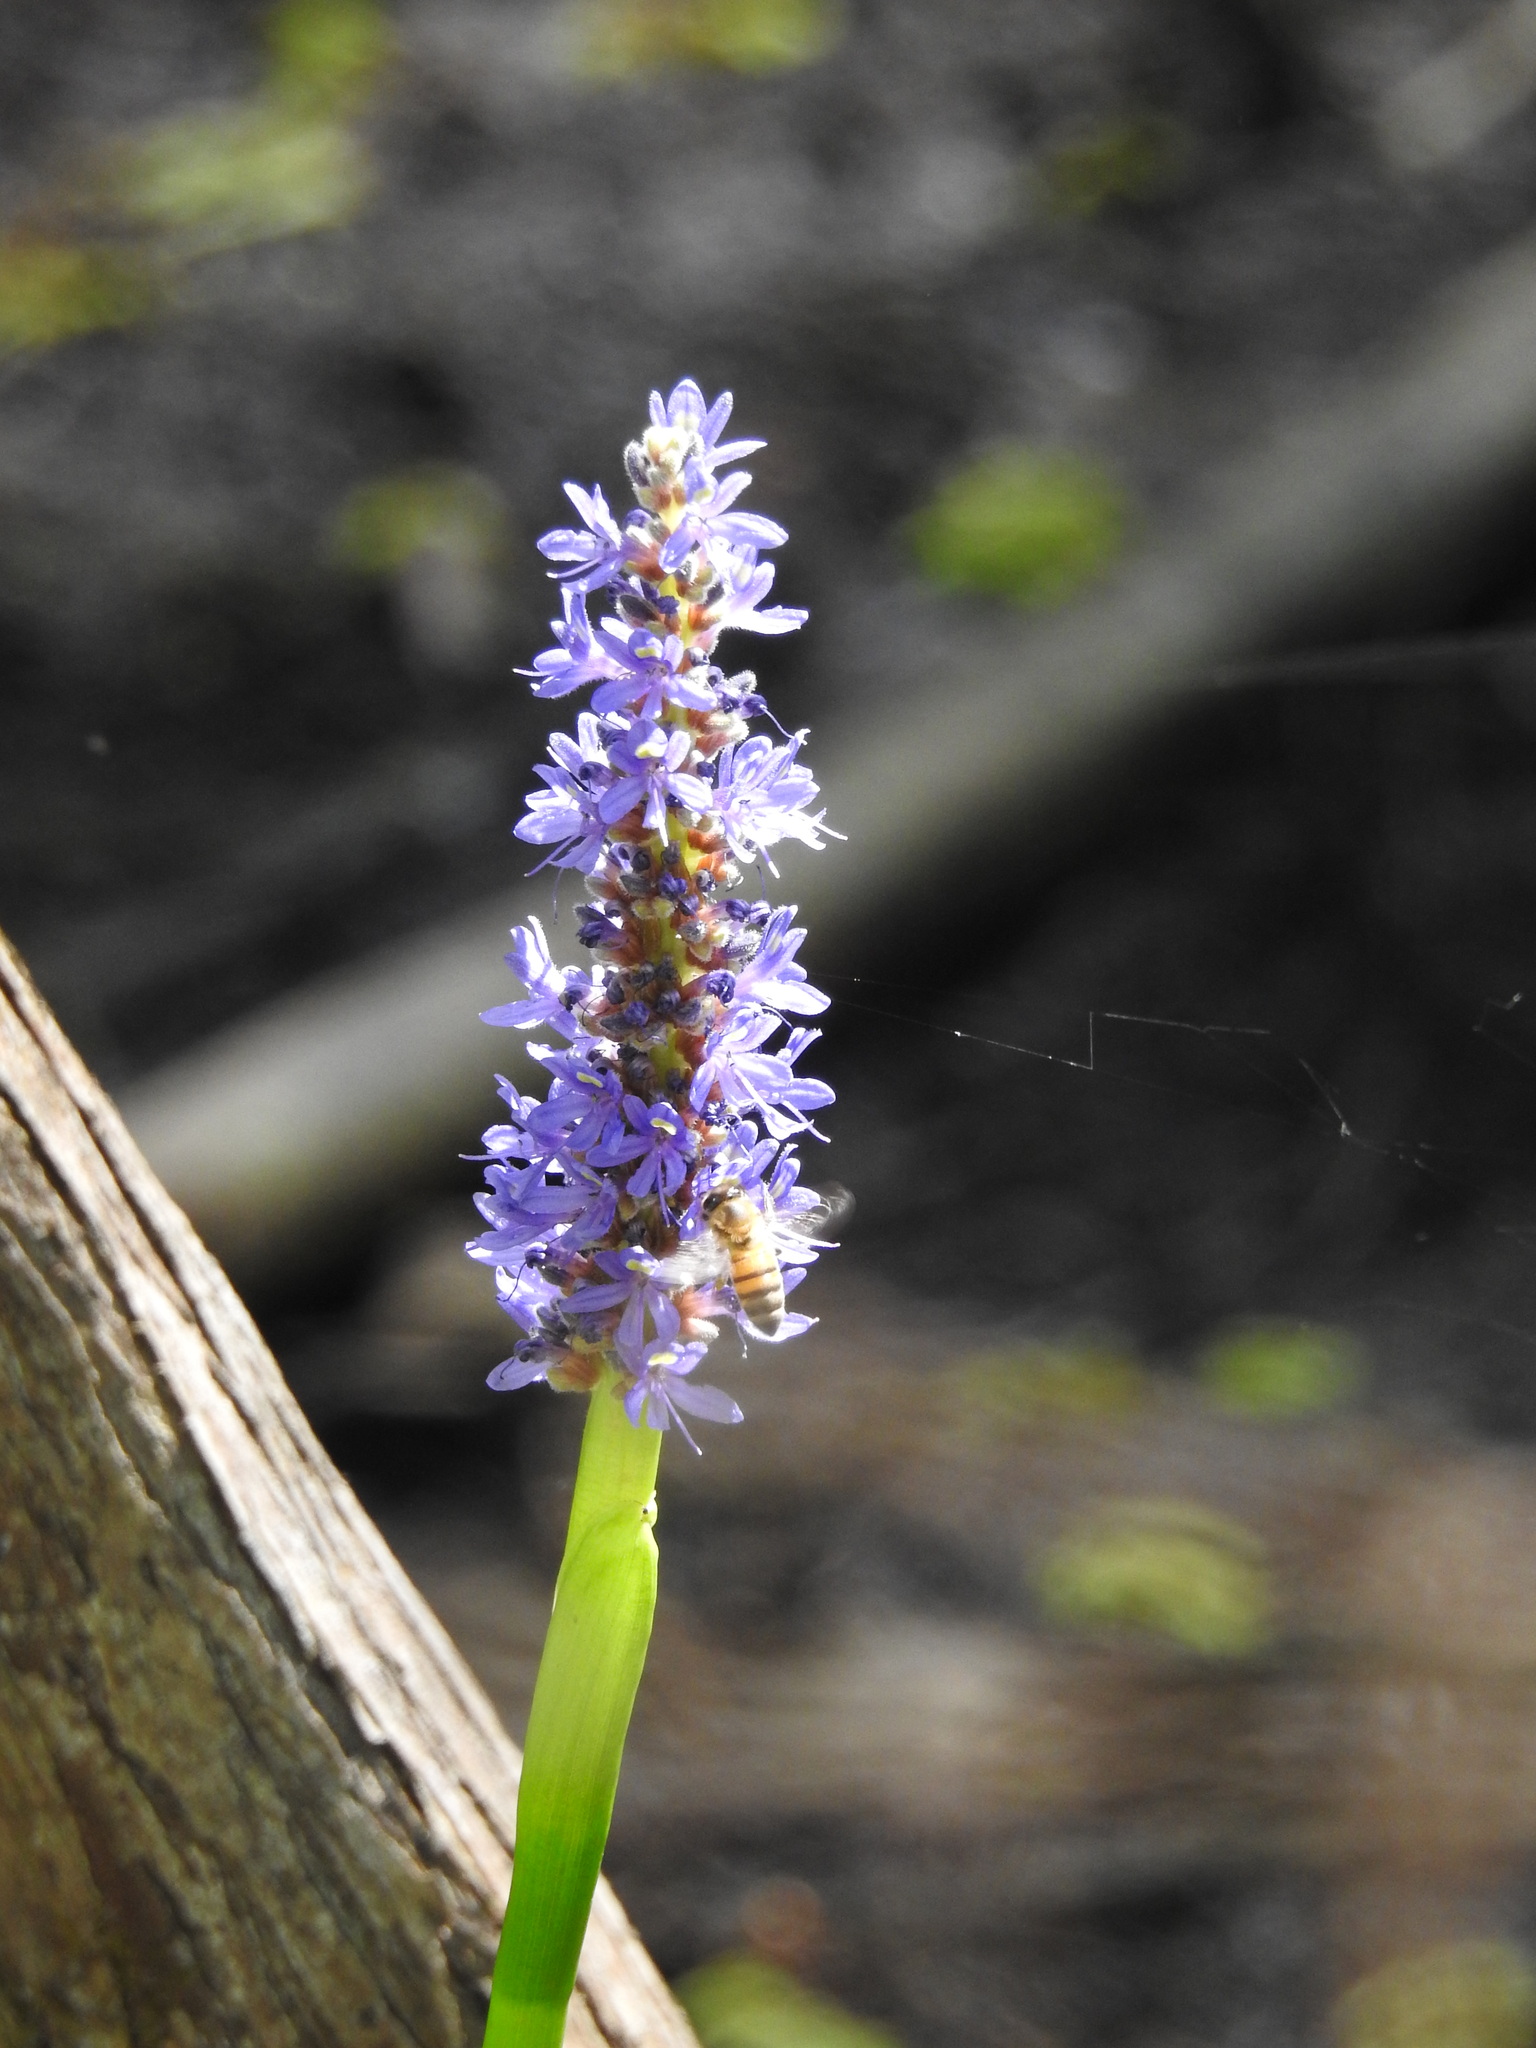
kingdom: Animalia
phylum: Arthropoda
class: Insecta
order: Hymenoptera
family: Apidae
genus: Apis
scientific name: Apis mellifera
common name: Honey bee
